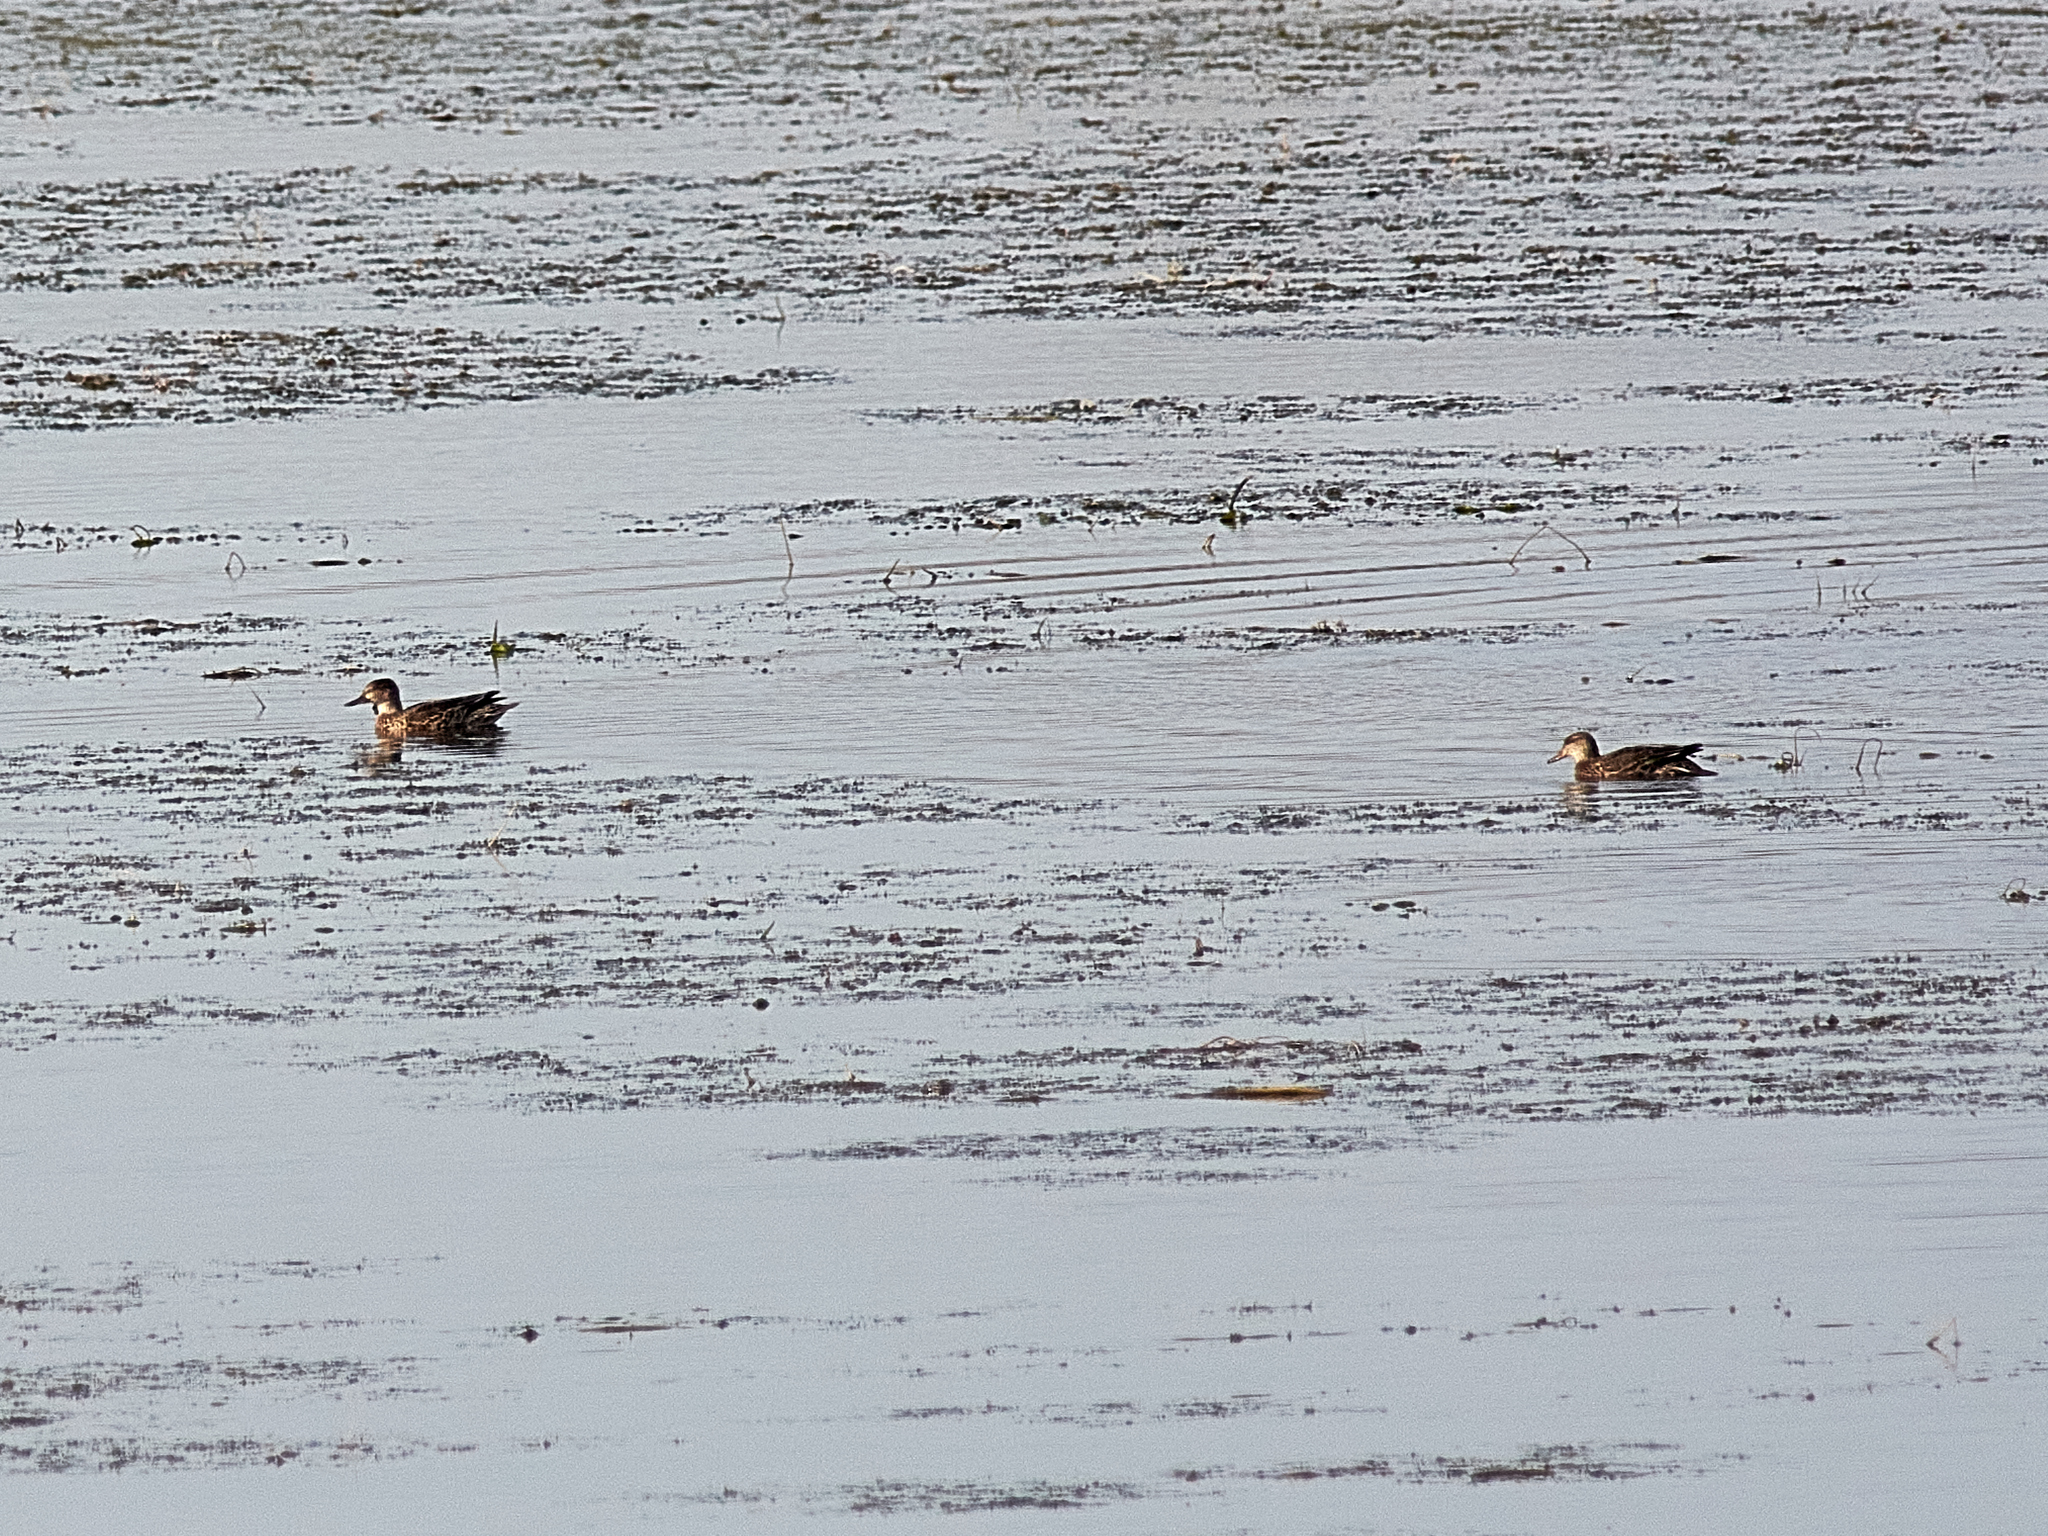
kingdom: Animalia
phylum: Chordata
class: Aves
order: Anseriformes
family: Anatidae
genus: Spatula
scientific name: Spatula querquedula
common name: Garganey
